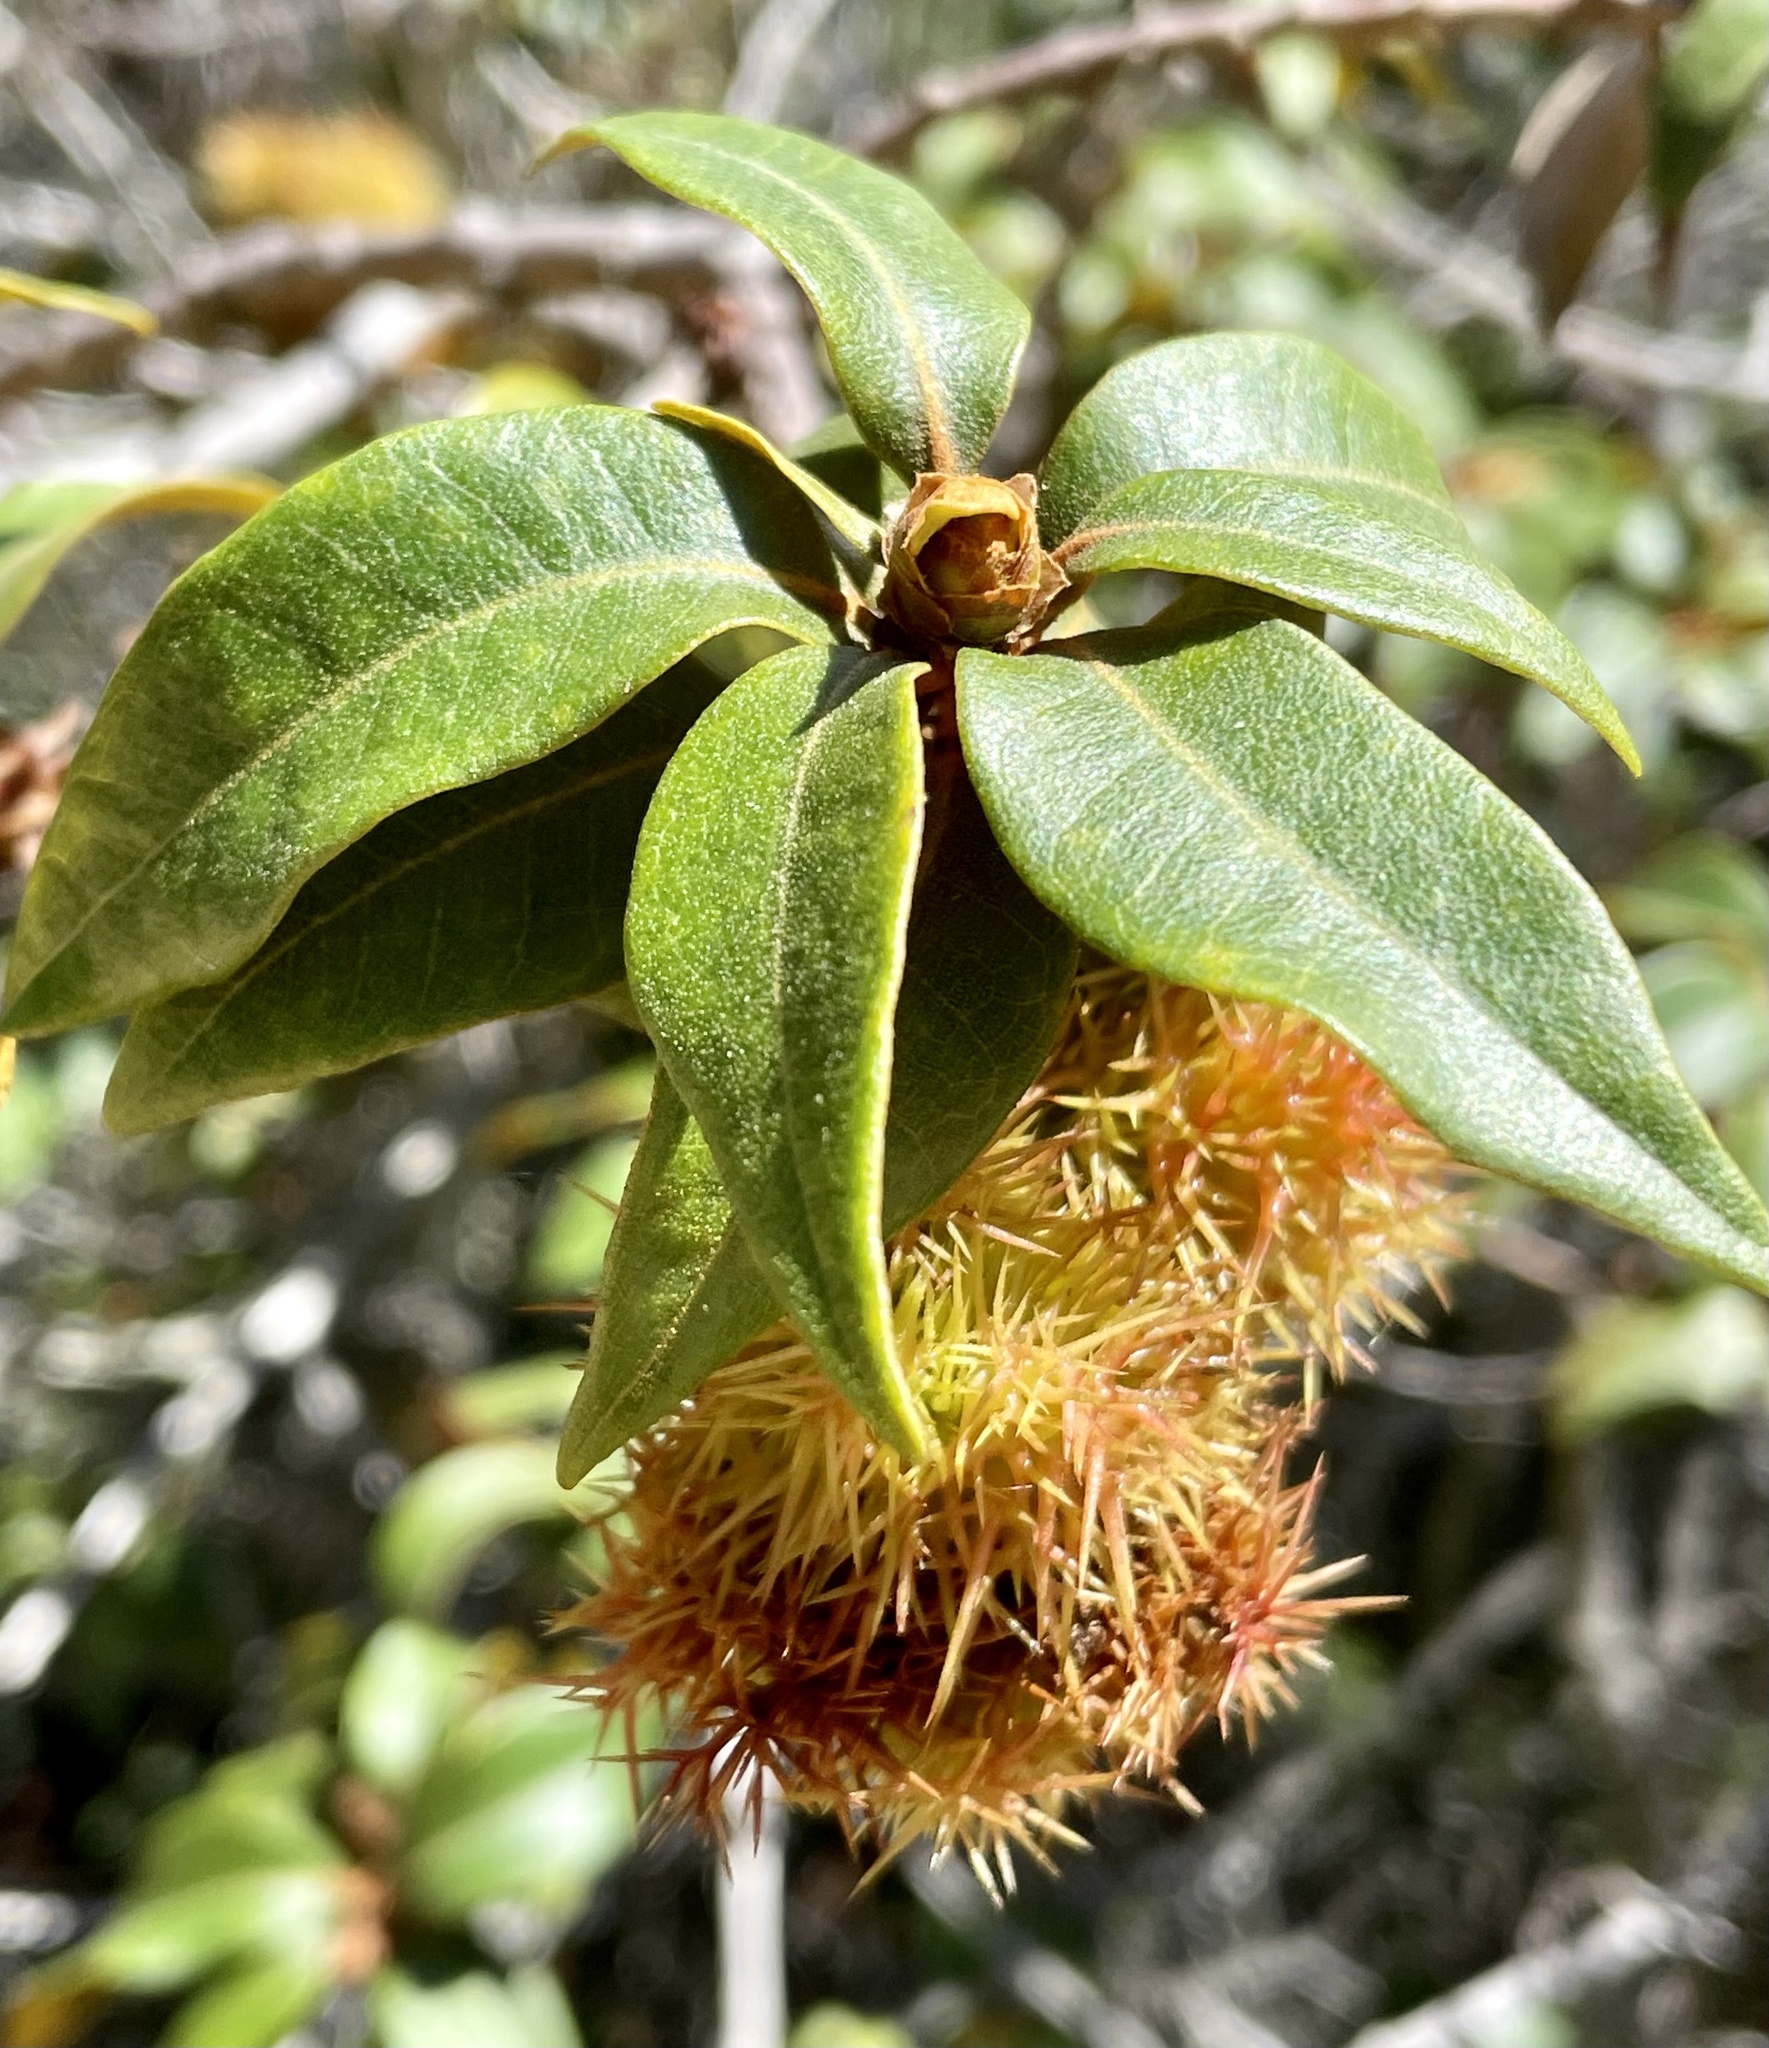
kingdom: Plantae
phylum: Tracheophyta
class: Magnoliopsida
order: Fagales
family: Fagaceae
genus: Chrysolepis
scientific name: Chrysolepis chrysophylla
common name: Giant chinquapin
